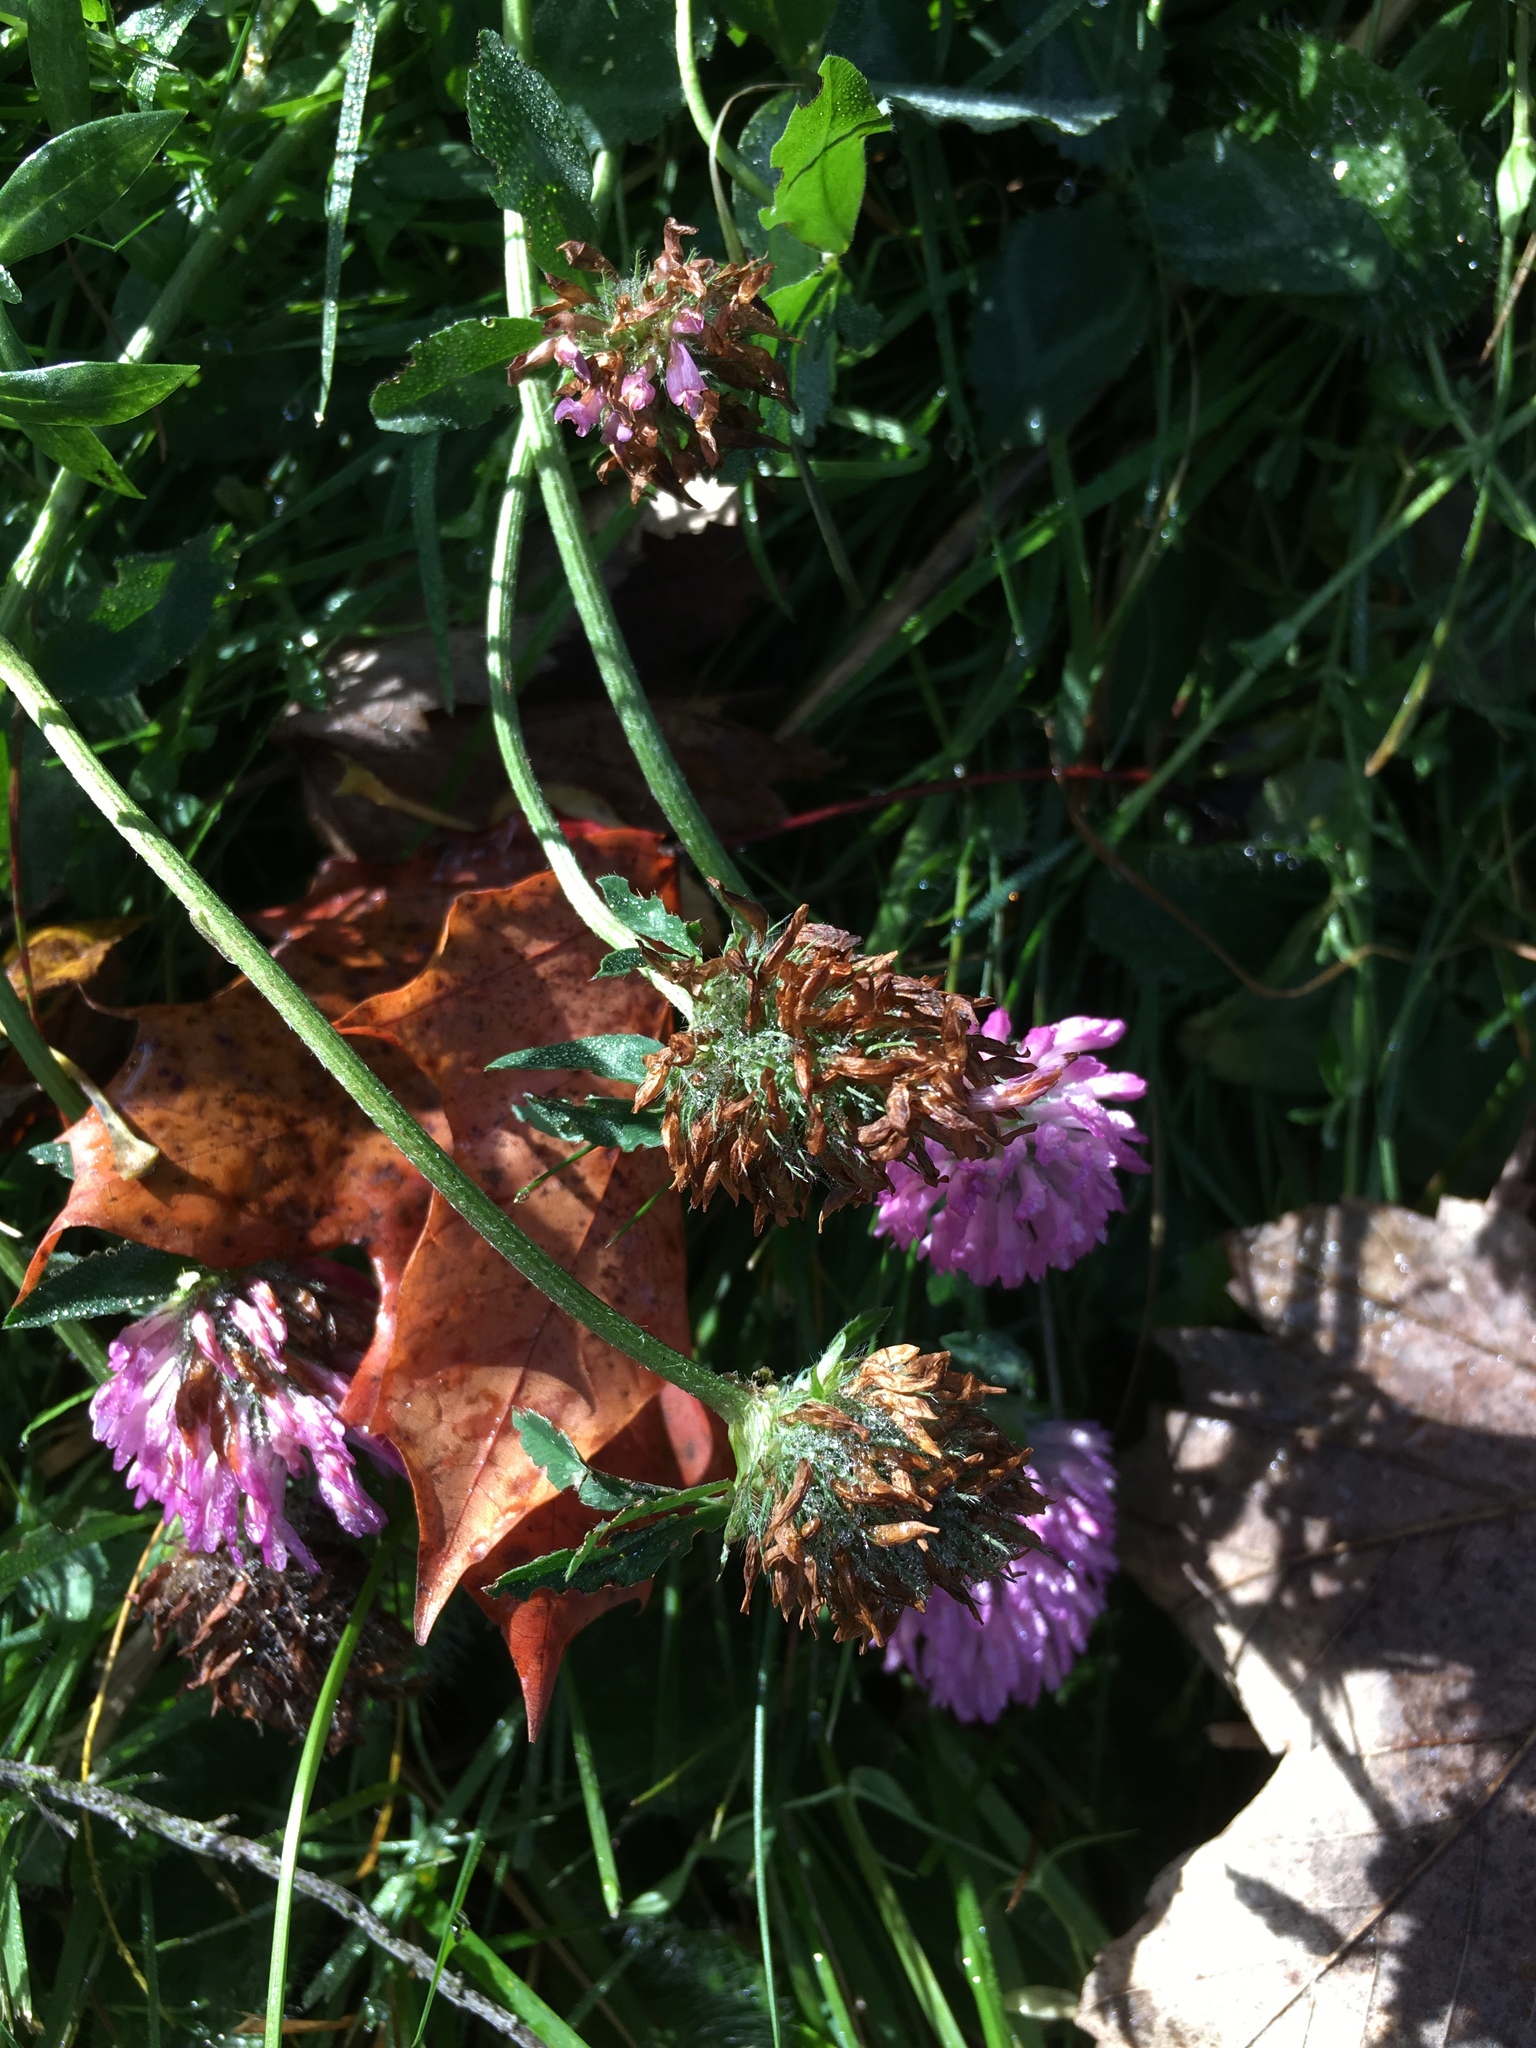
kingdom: Plantae
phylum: Tracheophyta
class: Magnoliopsida
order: Fabales
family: Fabaceae
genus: Trifolium
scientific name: Trifolium pratense
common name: Red clover
